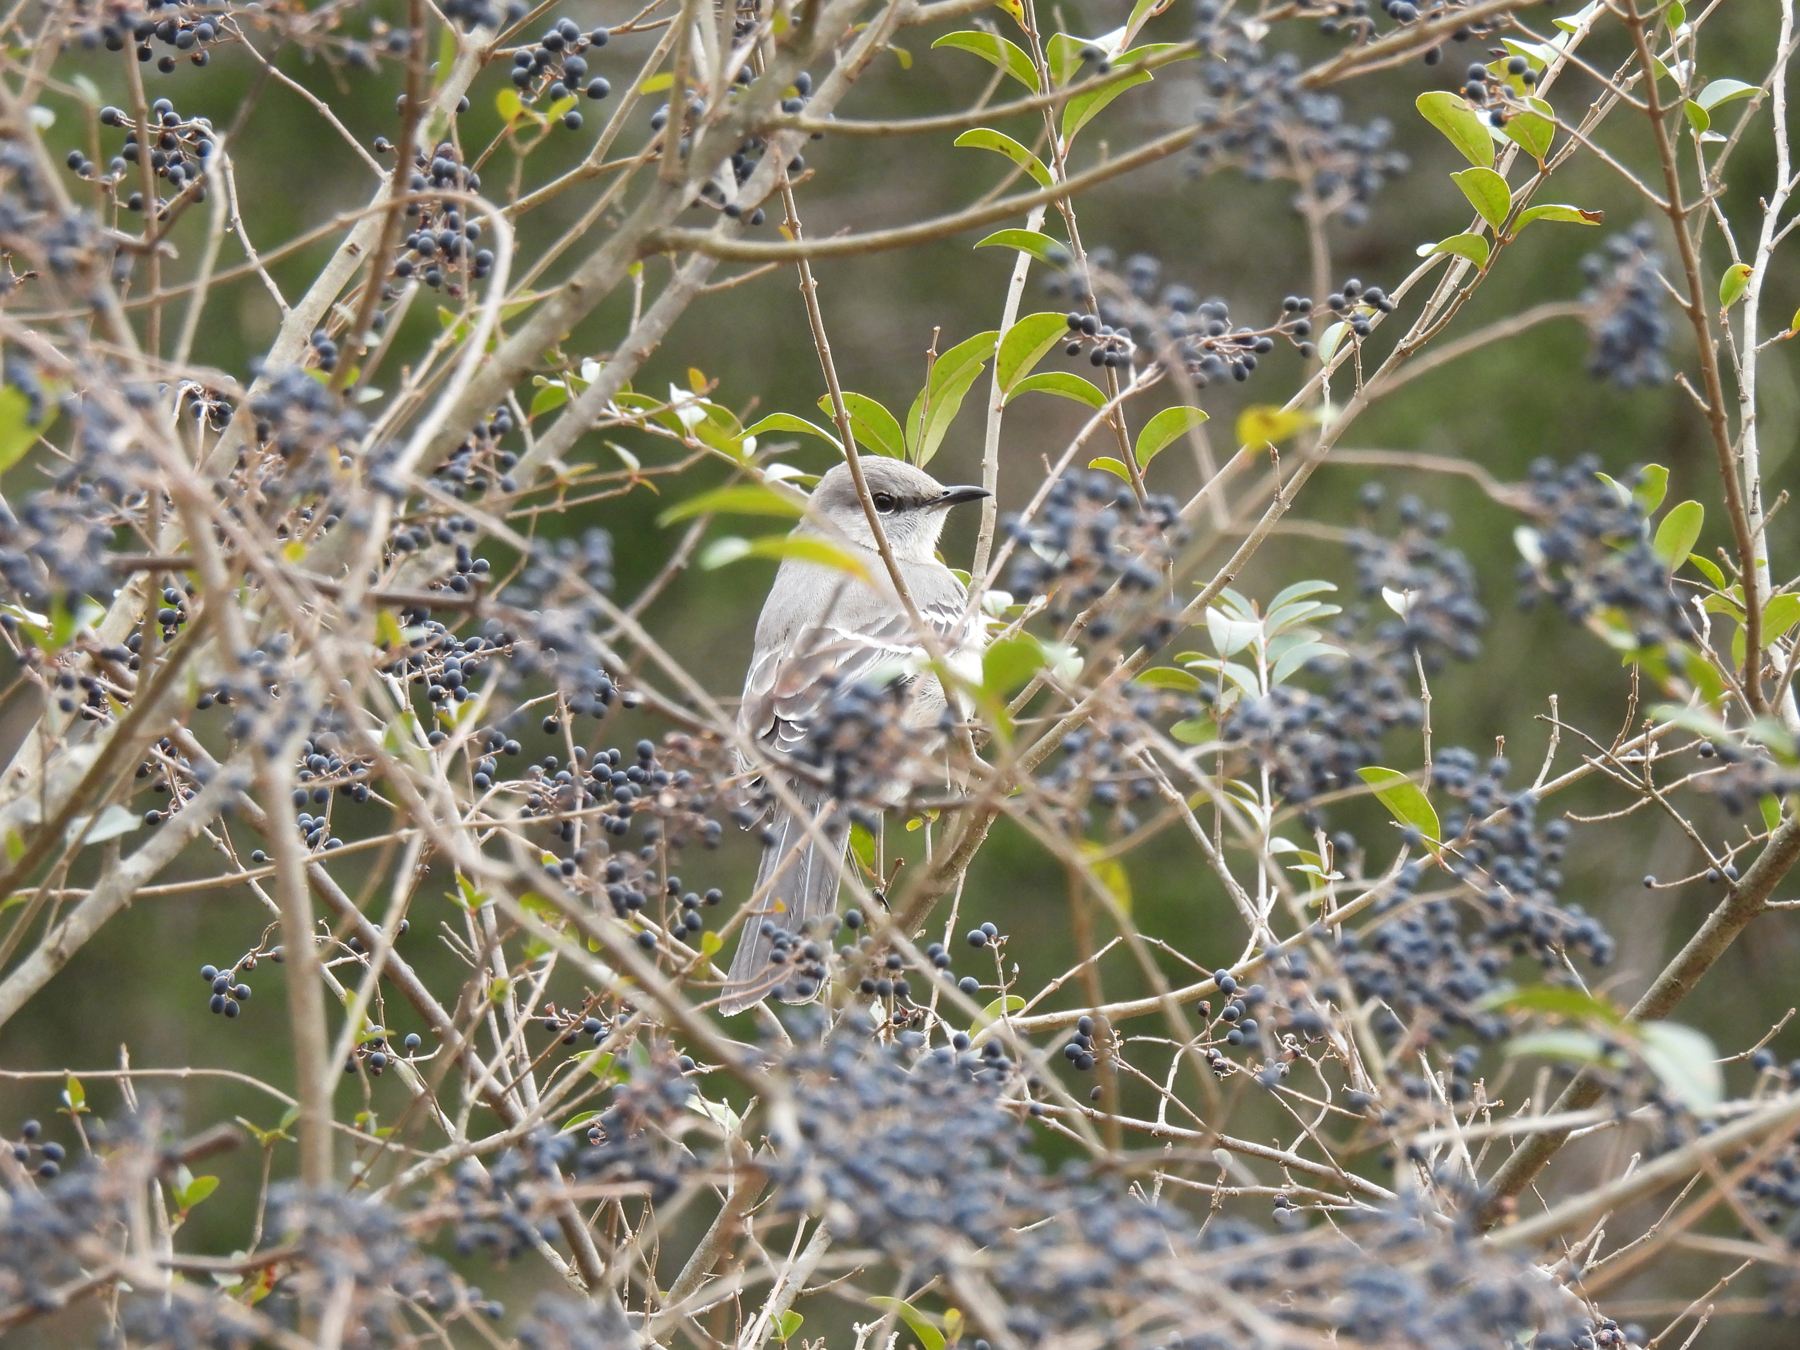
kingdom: Animalia
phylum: Chordata
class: Aves
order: Passeriformes
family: Mimidae
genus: Mimus
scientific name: Mimus polyglottos
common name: Northern mockingbird
